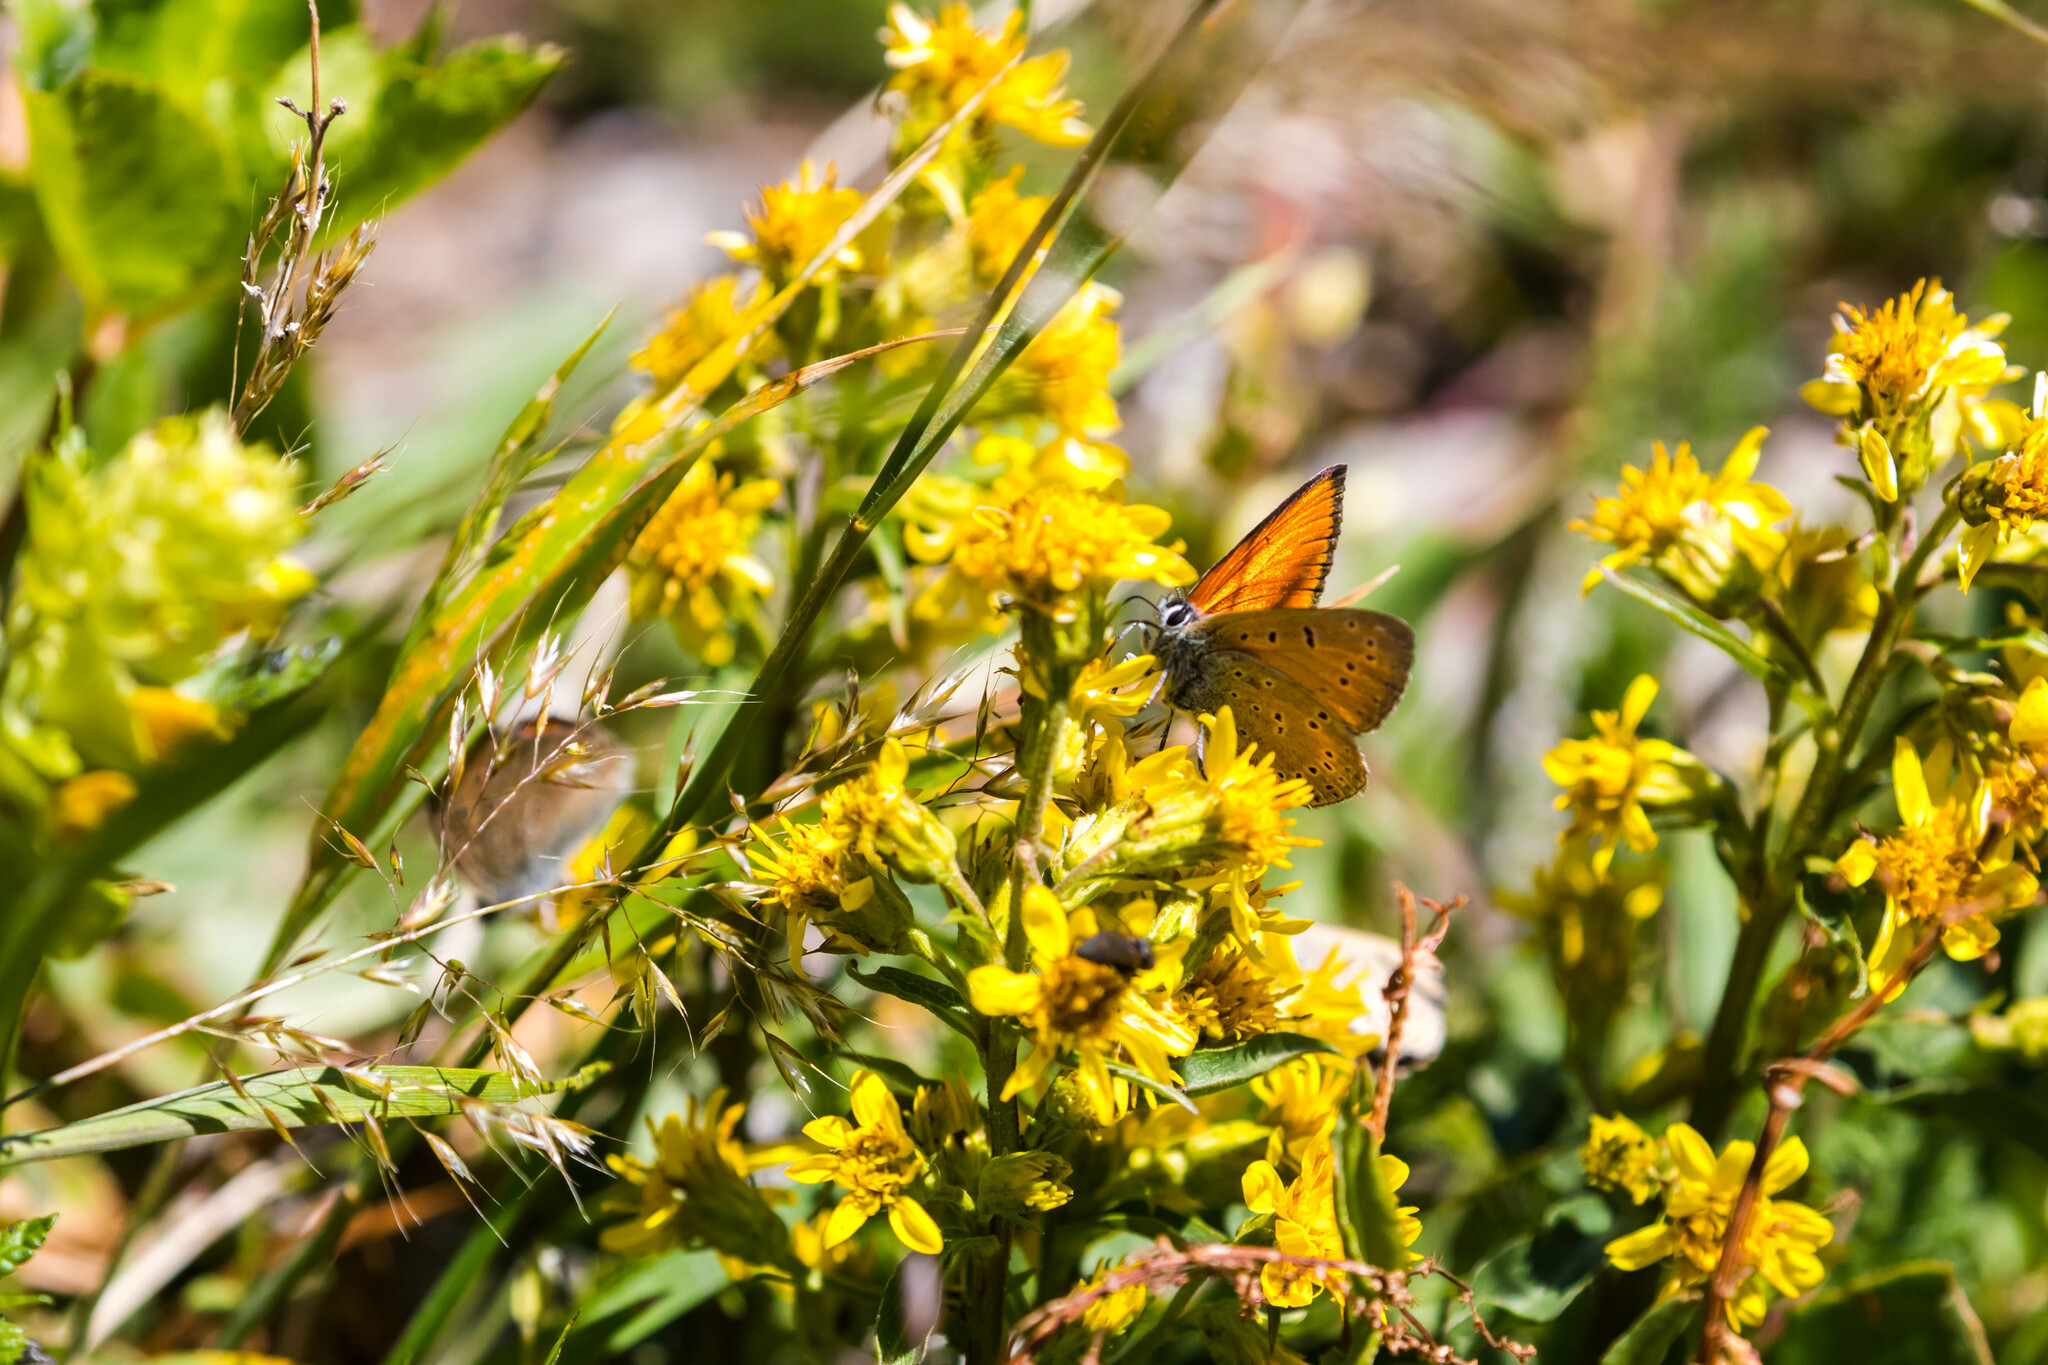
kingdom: Animalia
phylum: Arthropoda
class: Insecta
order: Lepidoptera
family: Lycaenidae
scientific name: Lycaenidae
